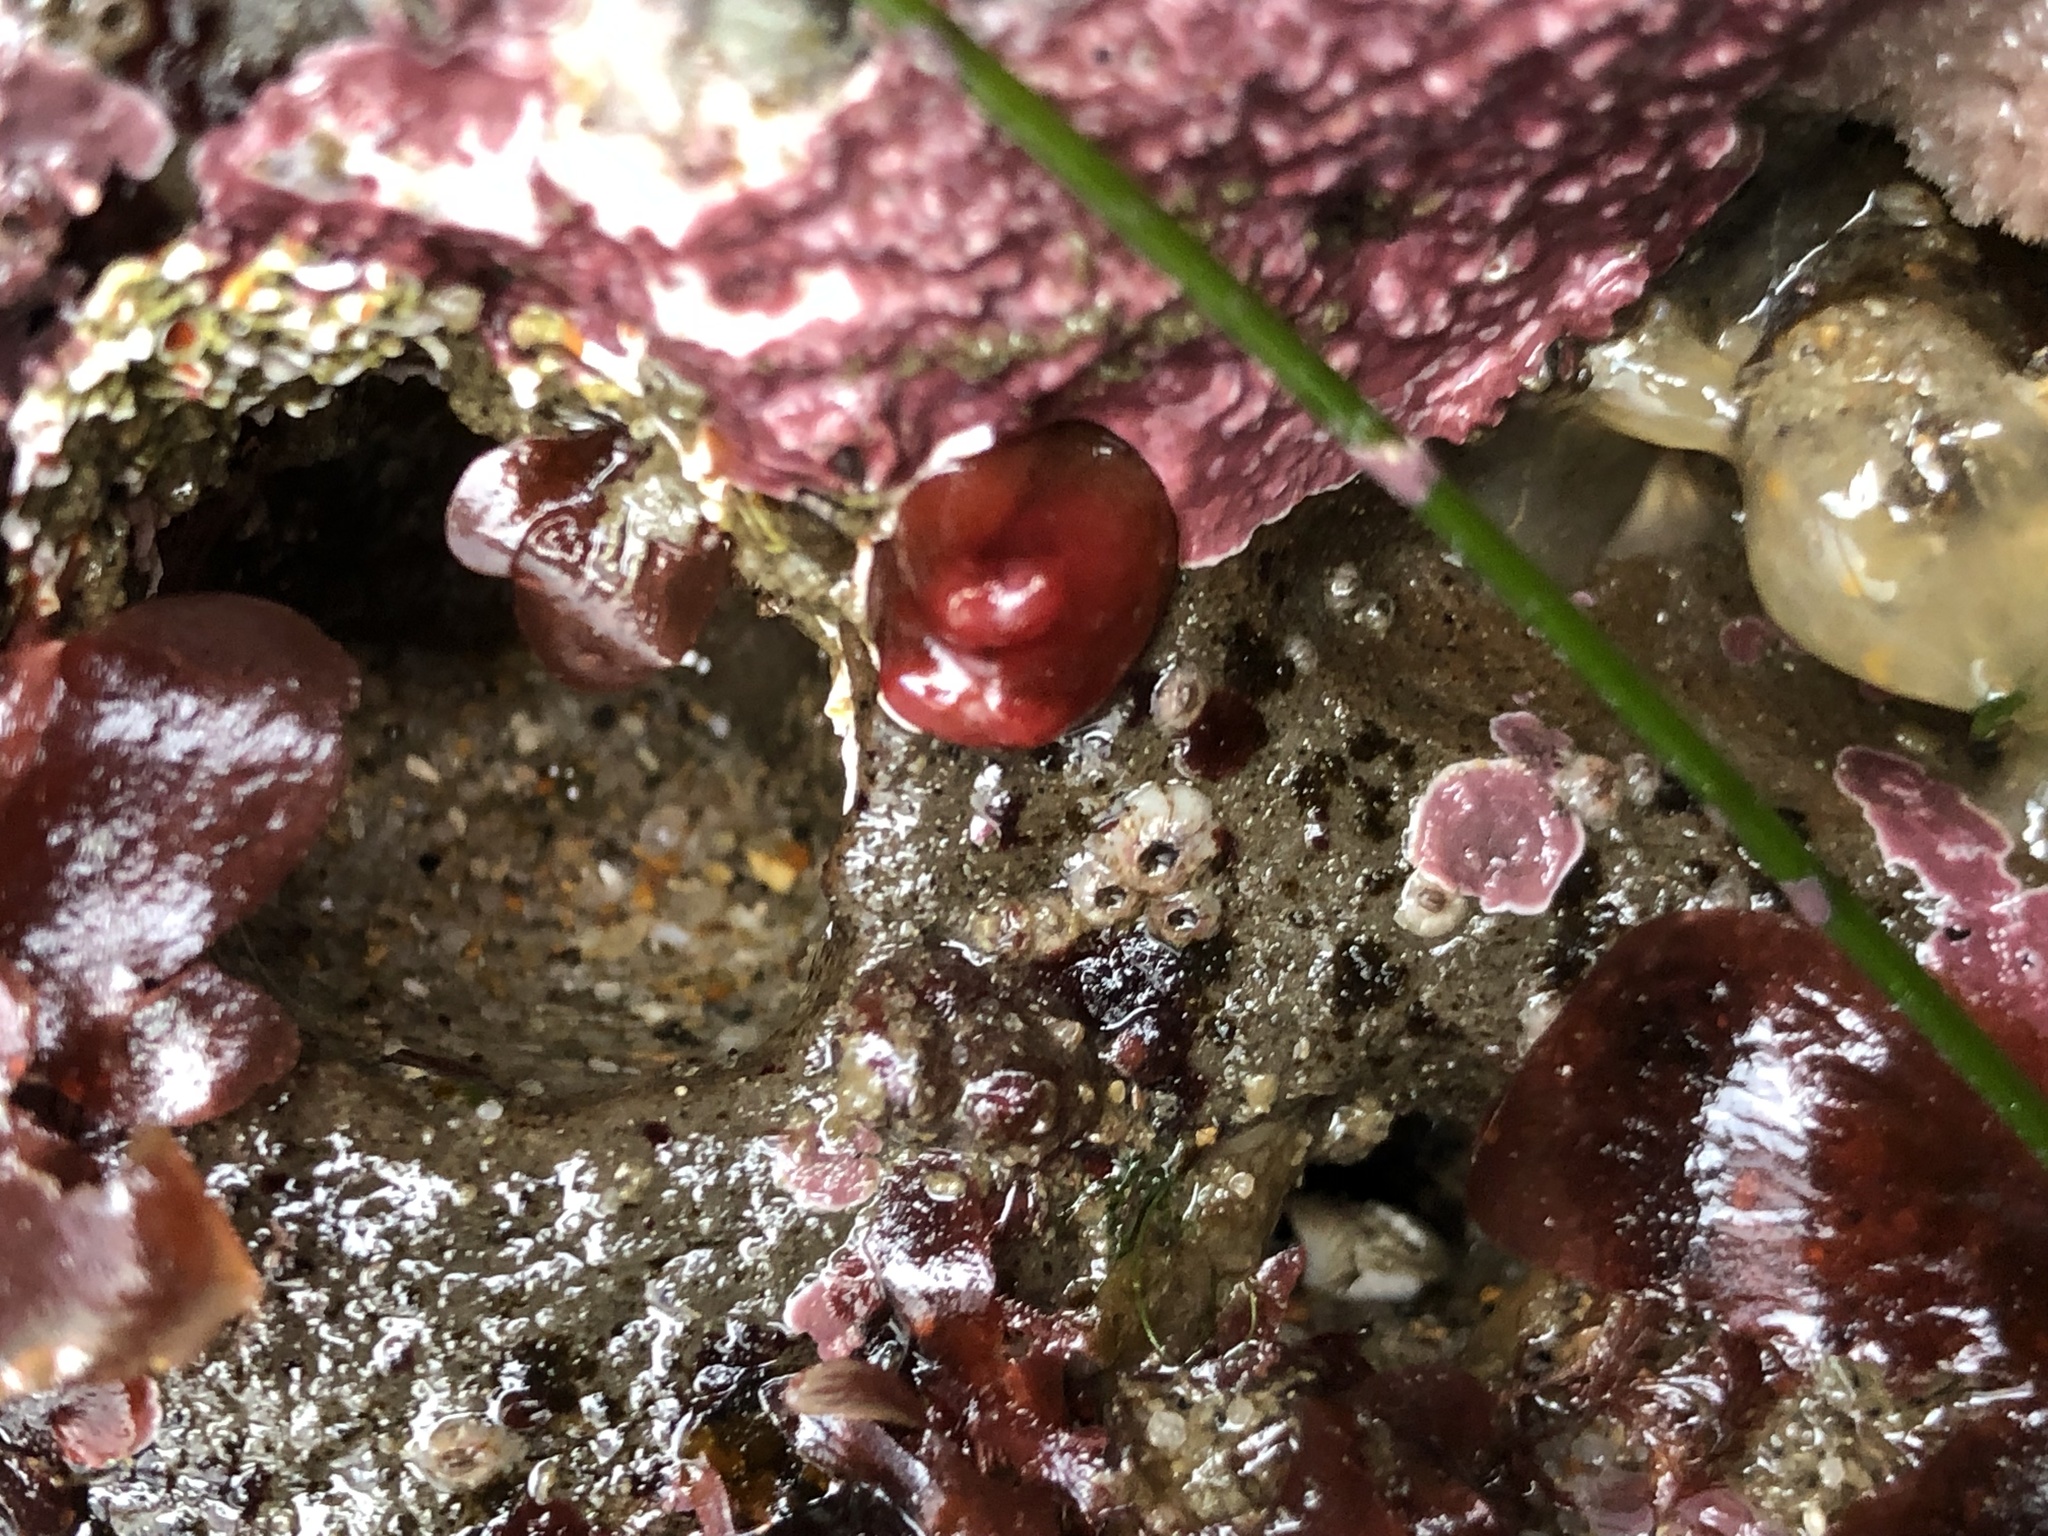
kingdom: Animalia
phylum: Mollusca
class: Bivalvia
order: Adapedonta
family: Hiatellidae
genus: Hiatella
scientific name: Hiatella arctica
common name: Arctic hiatella
